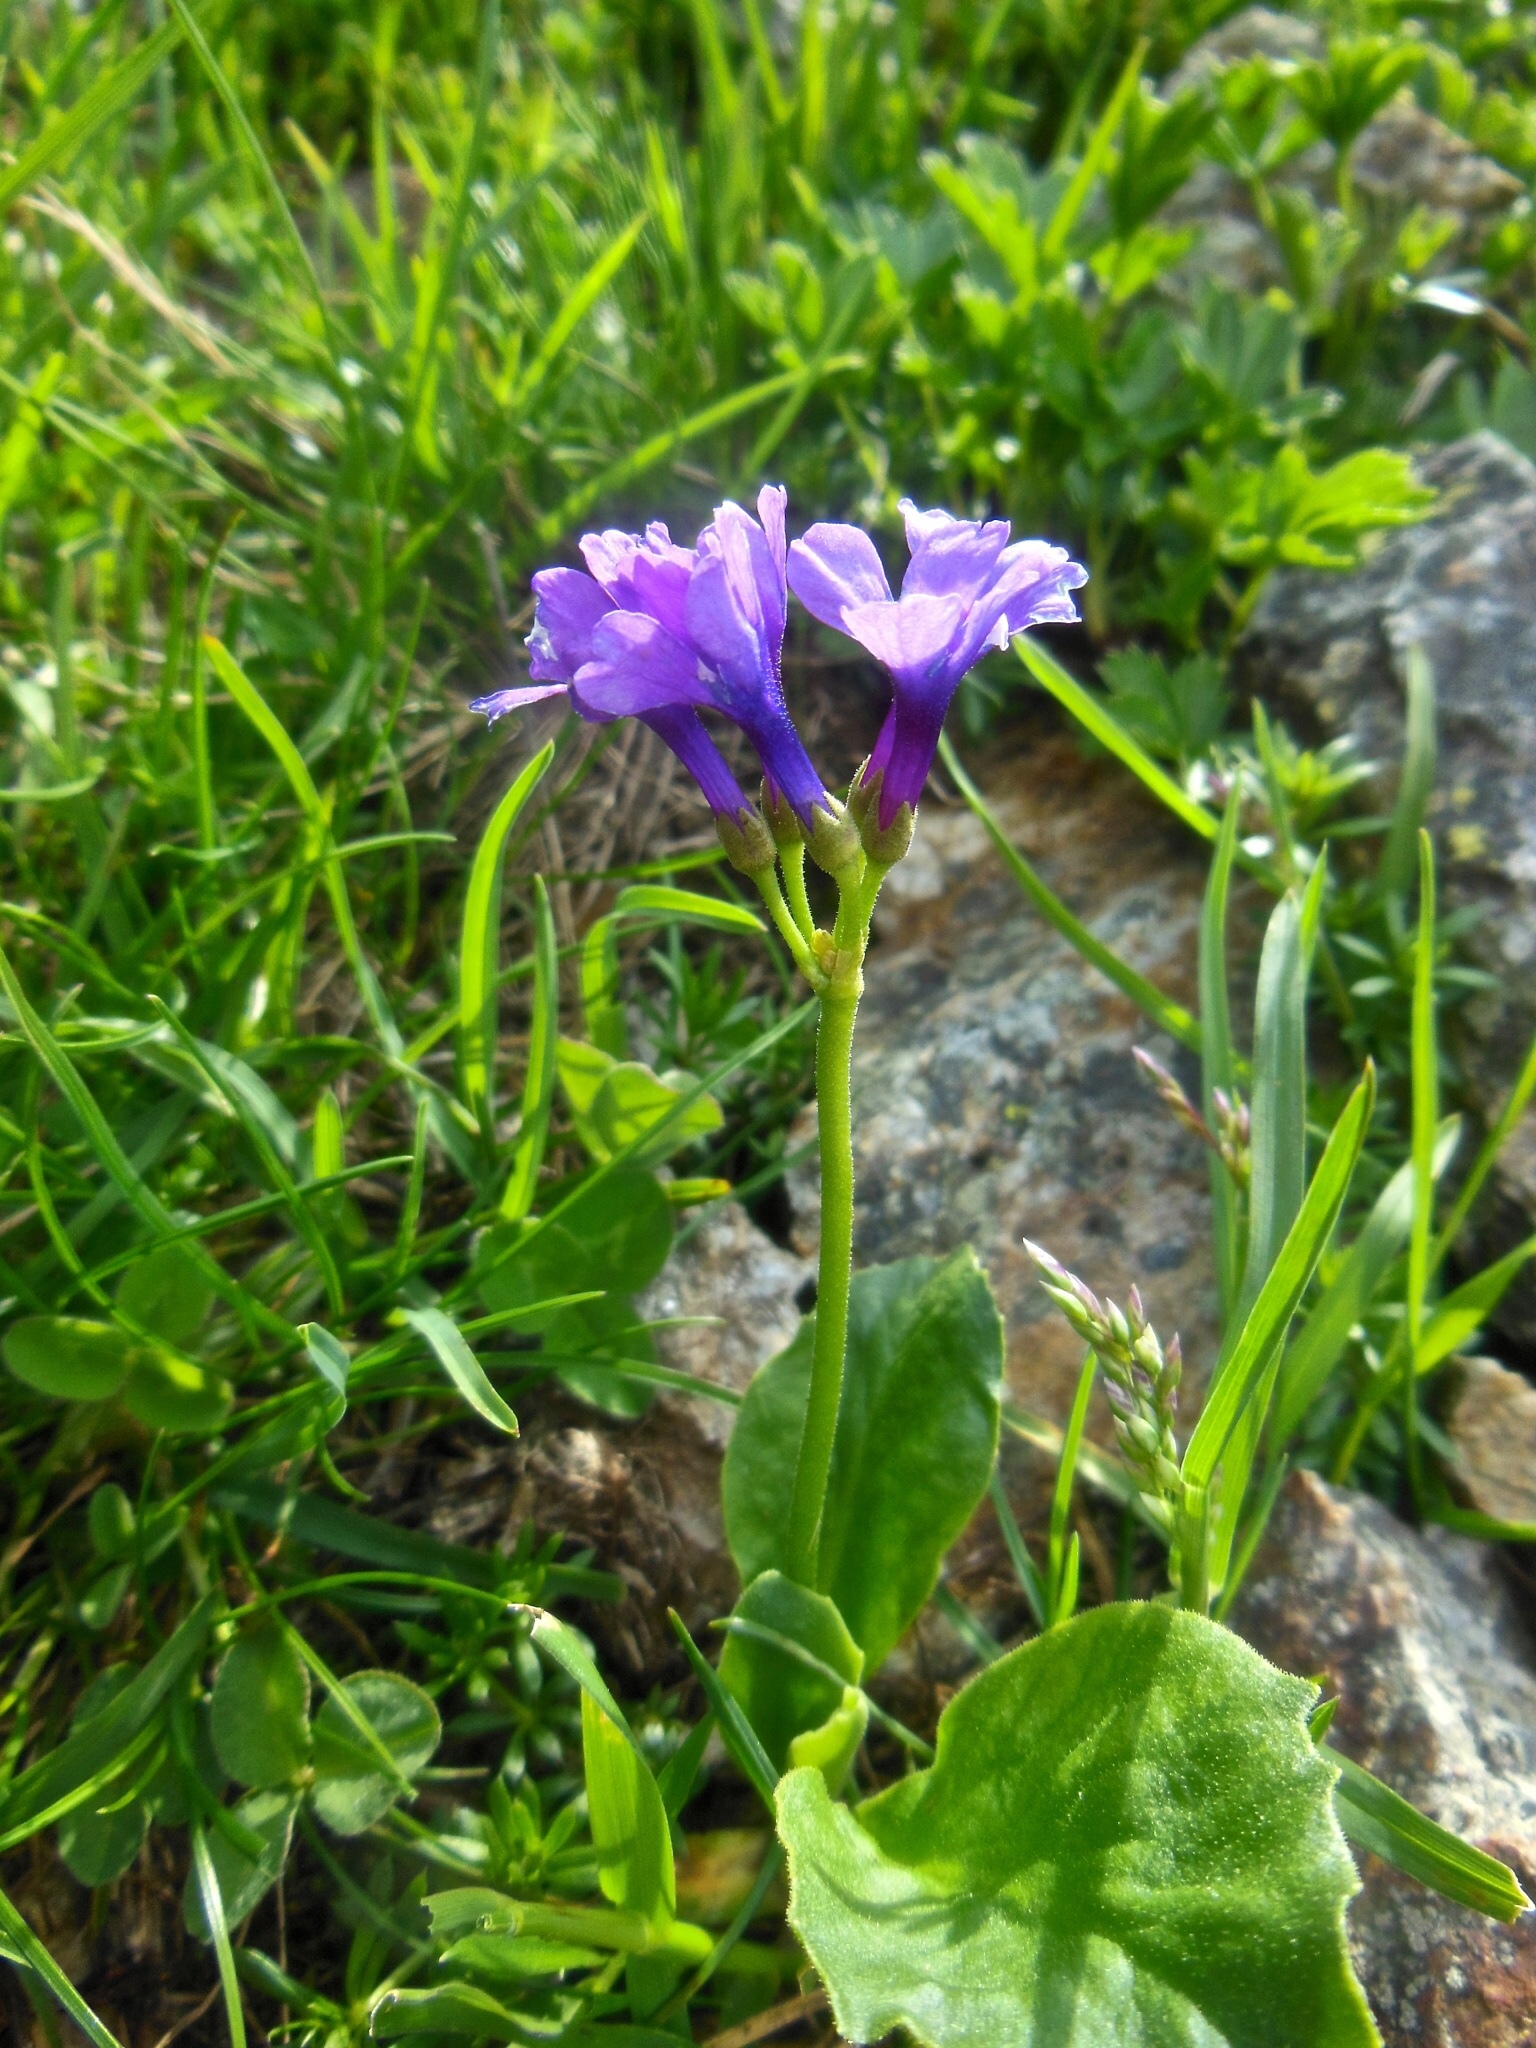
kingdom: Plantae
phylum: Tracheophyta
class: Magnoliopsida
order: Ericales
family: Primulaceae
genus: Primula
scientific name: Primula latifolia
